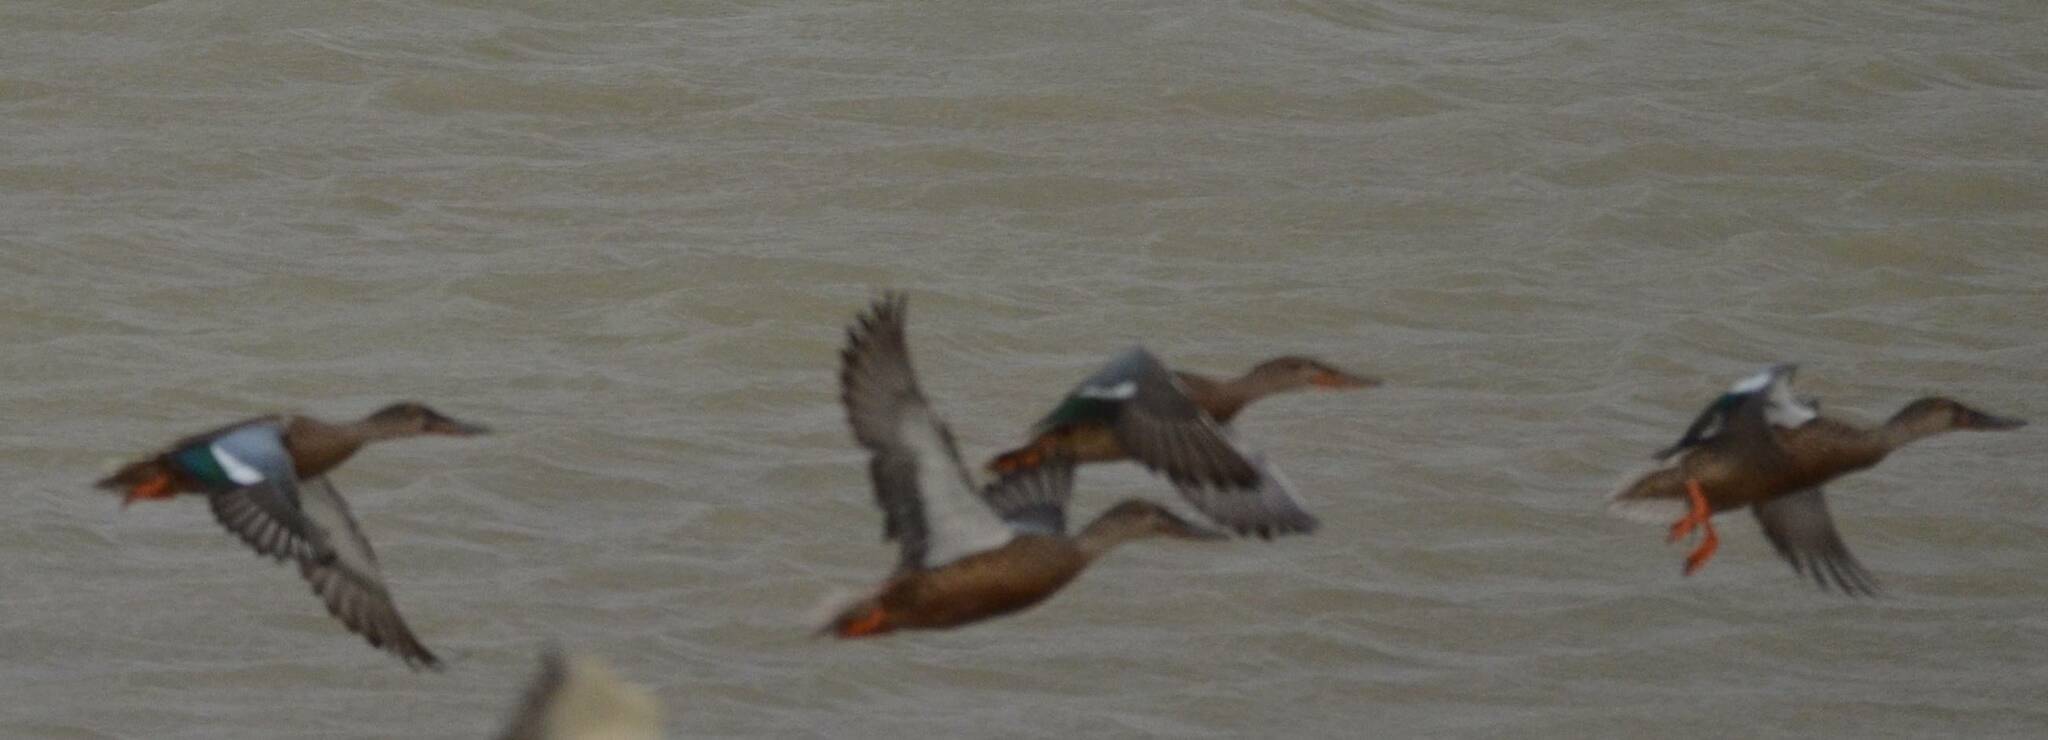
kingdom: Animalia
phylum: Chordata
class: Aves
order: Anseriformes
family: Anatidae
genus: Spatula
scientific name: Spatula clypeata
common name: Northern shoveler
